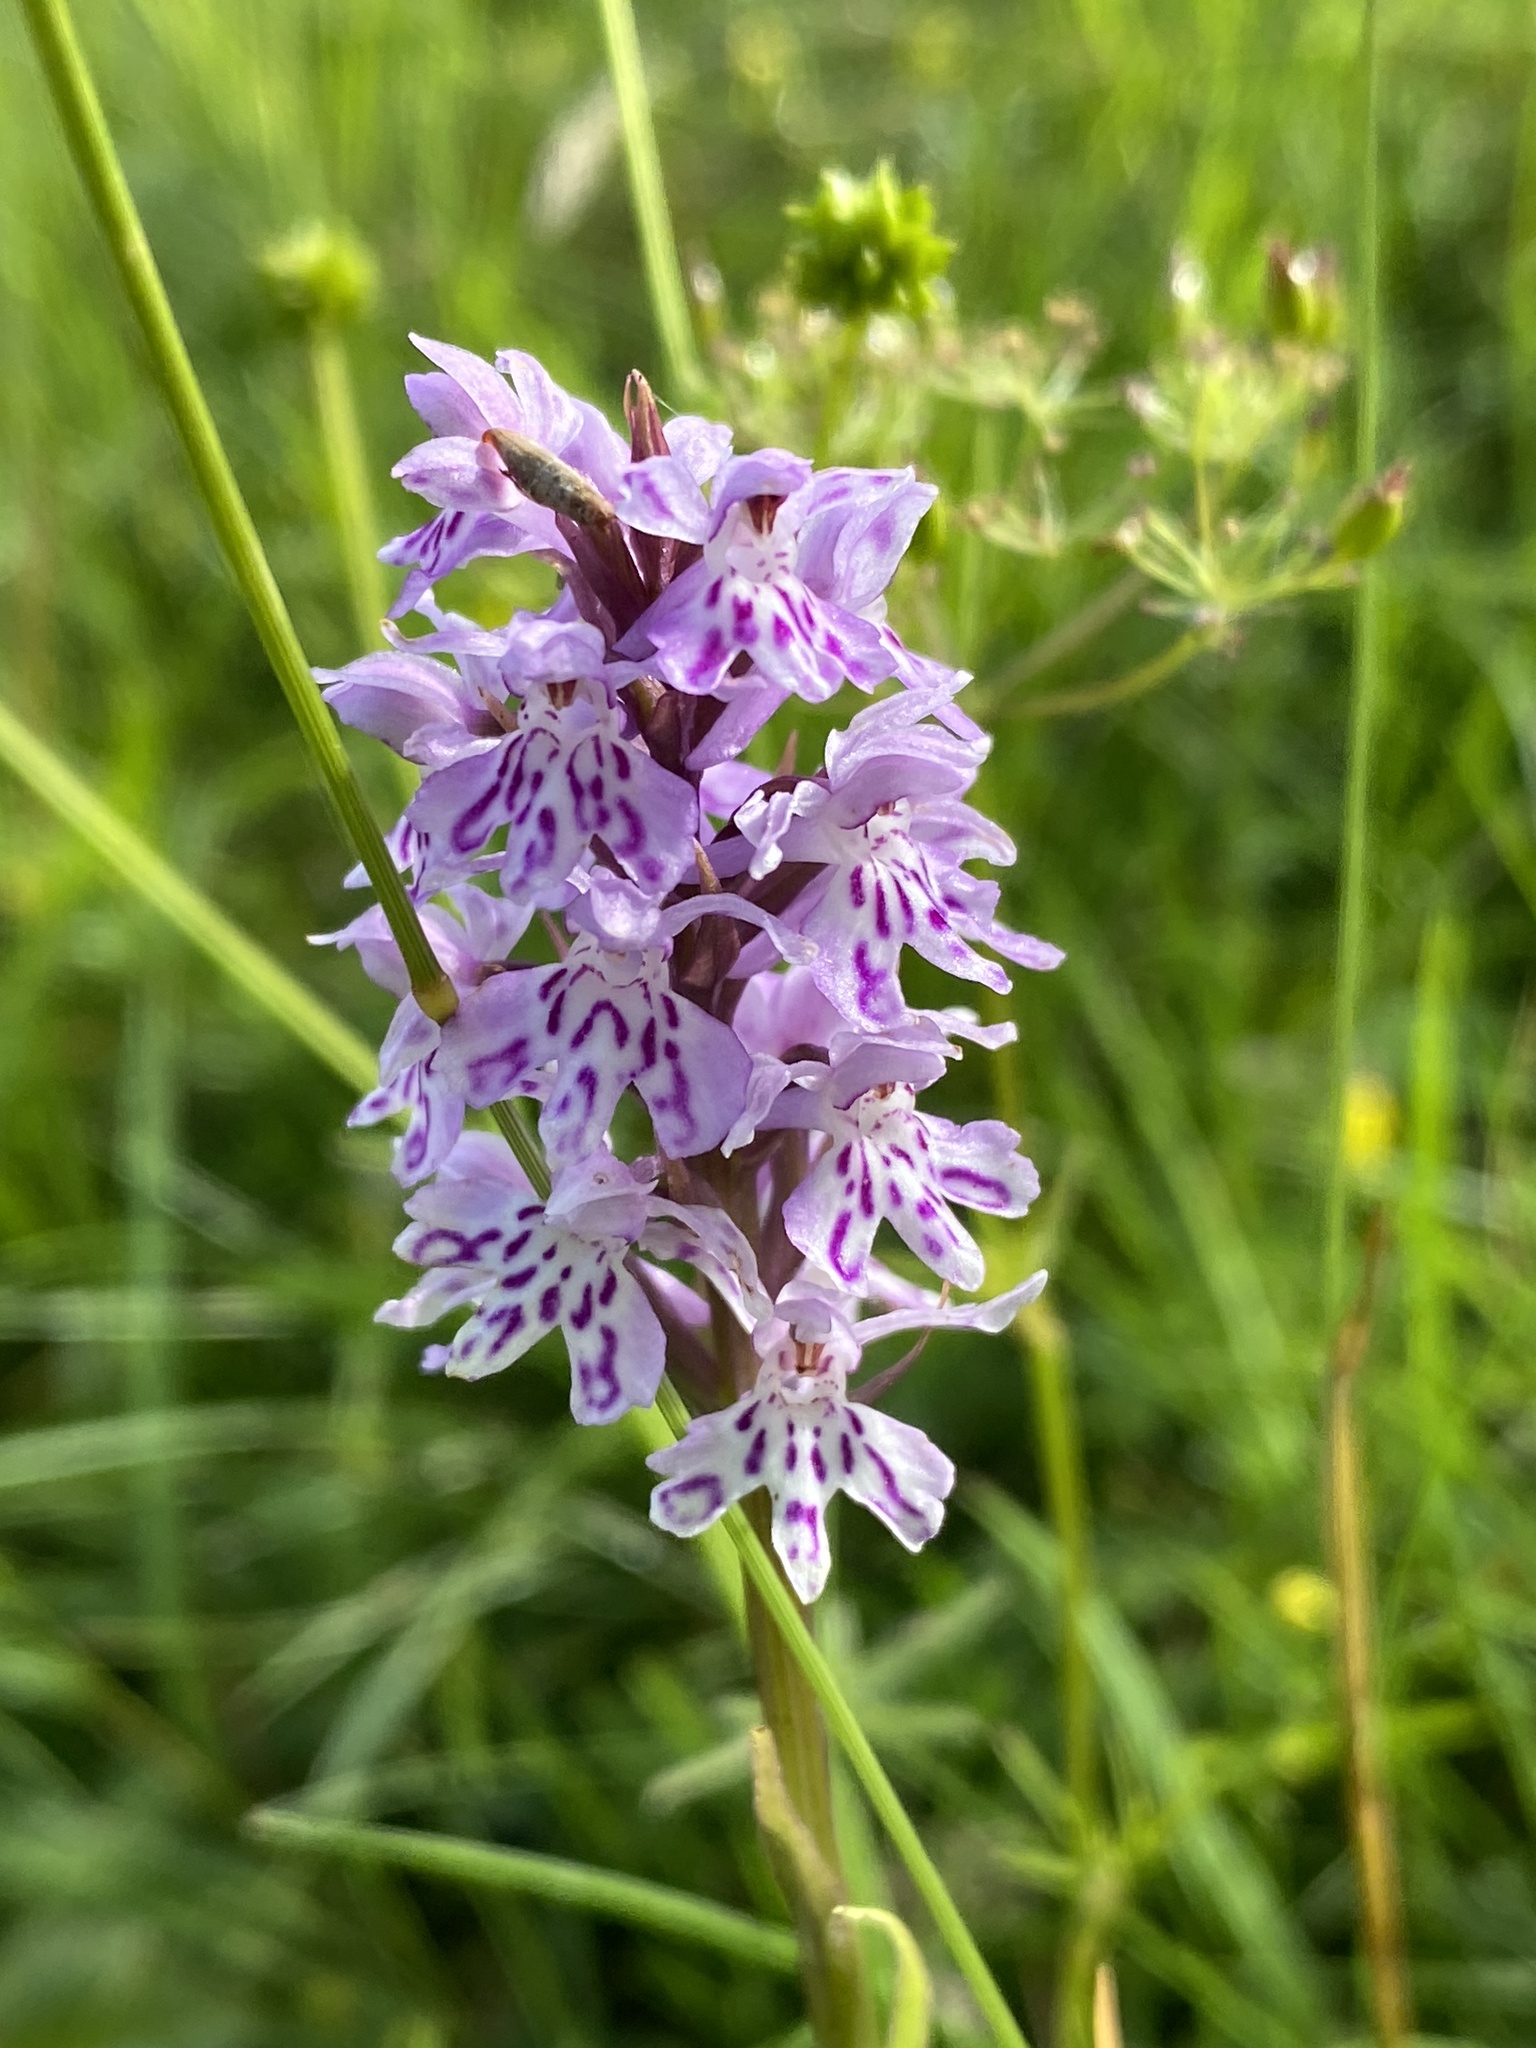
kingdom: Plantae
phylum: Tracheophyta
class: Liliopsida
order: Asparagales
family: Orchidaceae
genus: Dactylorhiza
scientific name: Dactylorhiza maculata
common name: Heath spotted-orchid
